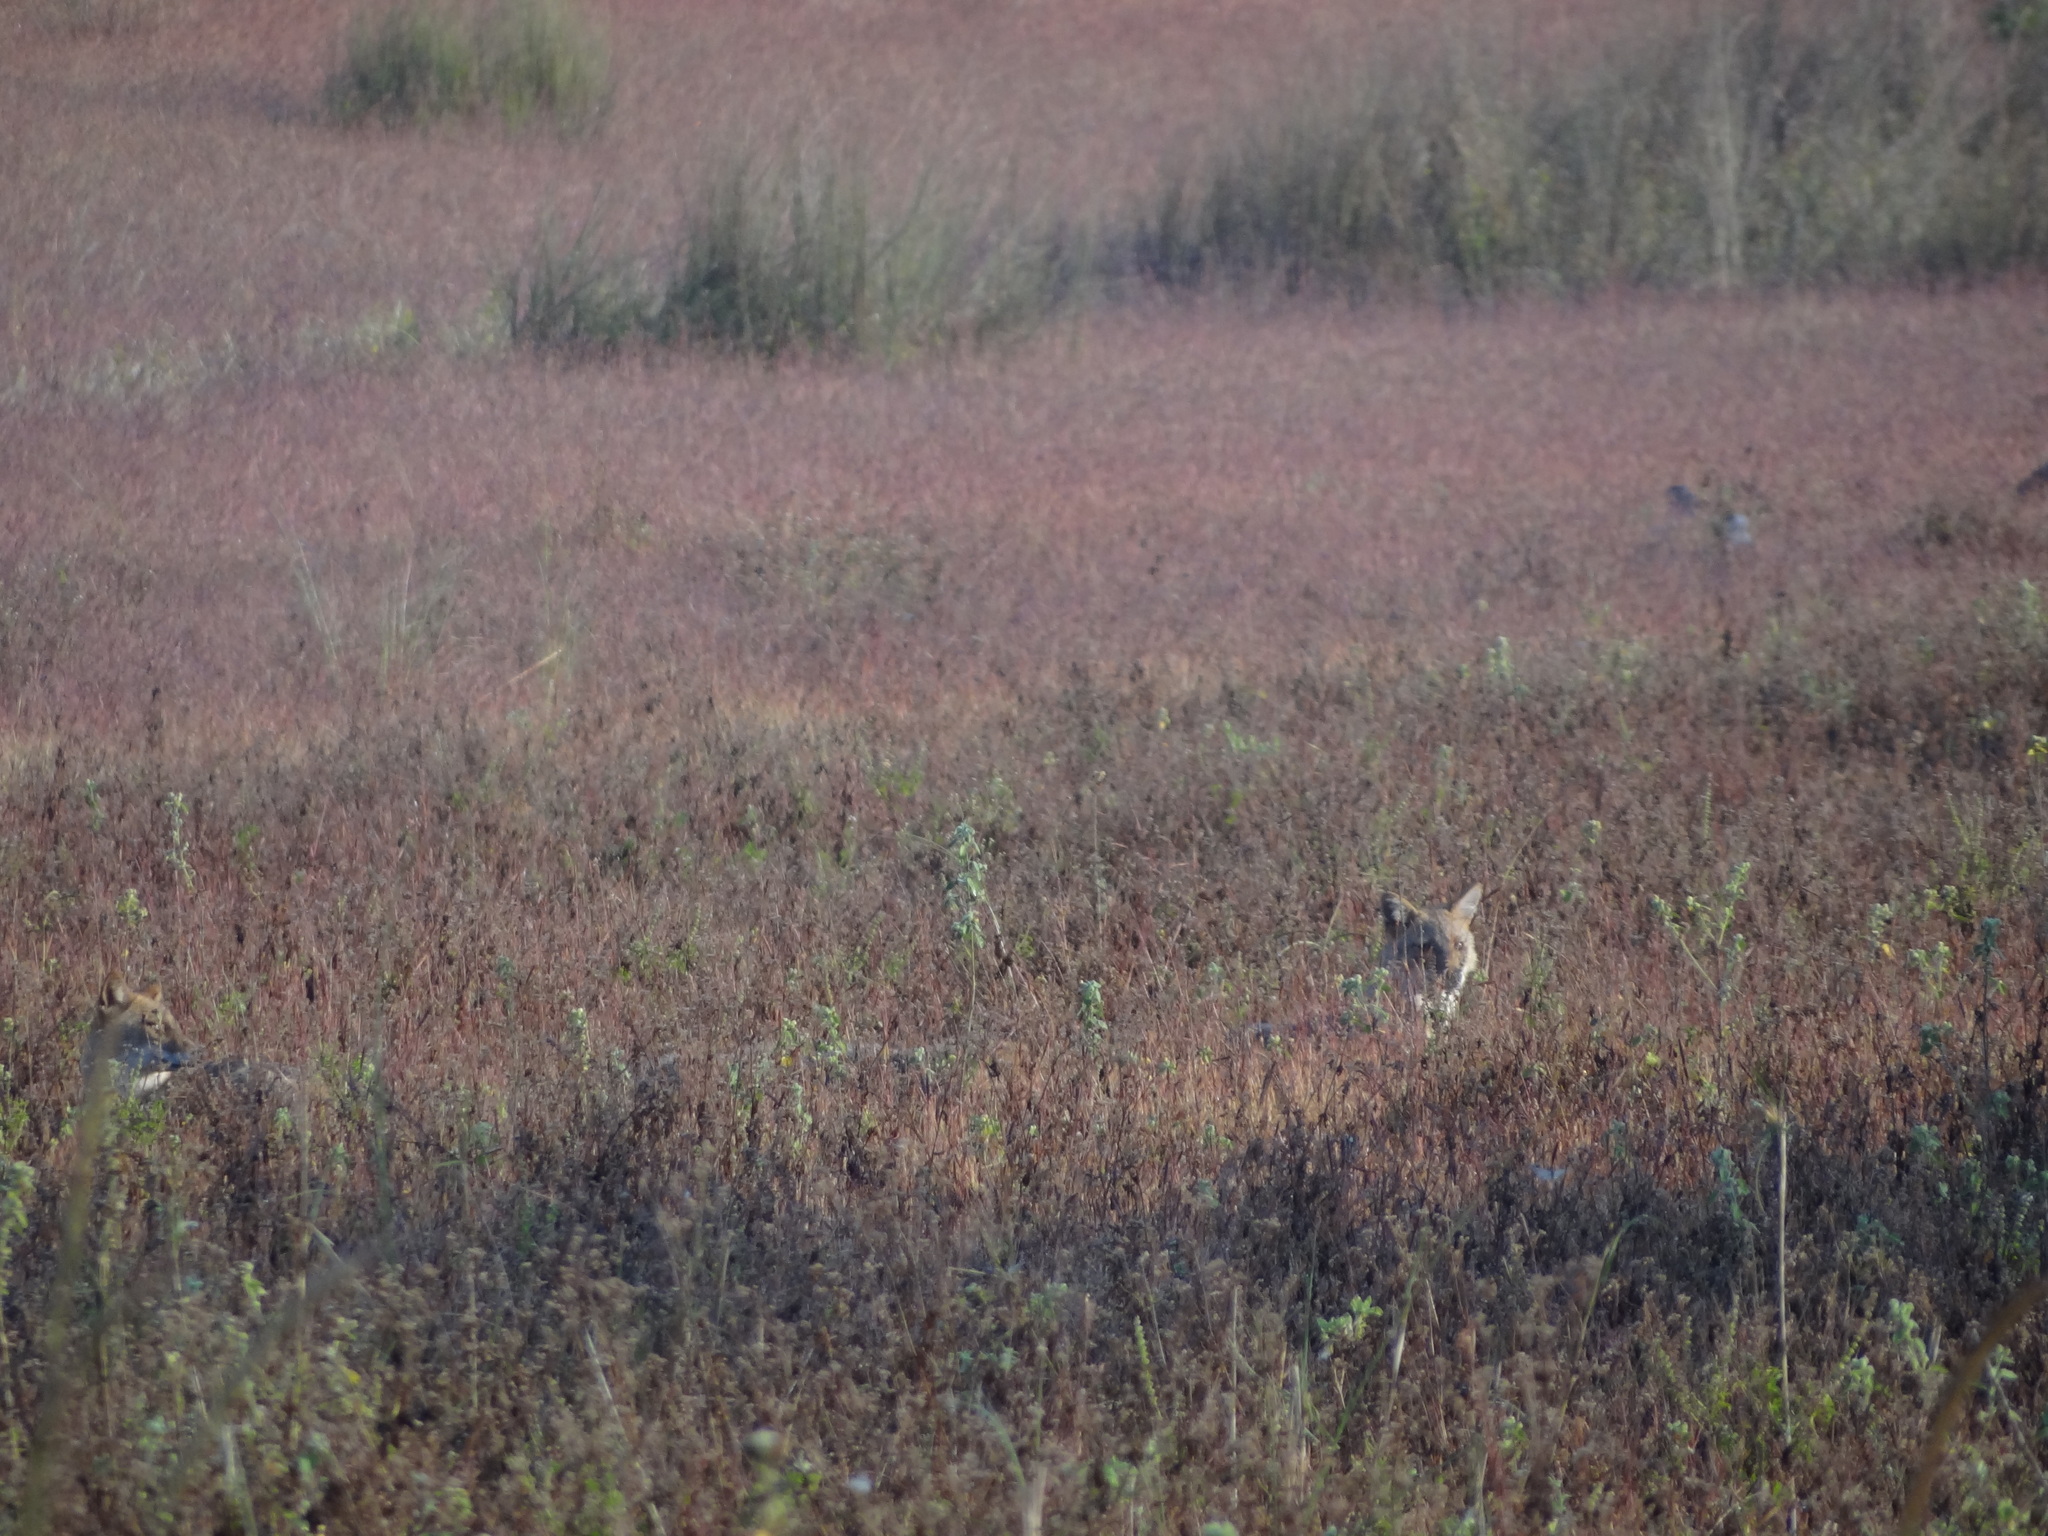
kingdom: Animalia
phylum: Chordata
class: Mammalia
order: Carnivora
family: Canidae
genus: Canis
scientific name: Canis aureus
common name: Golden jackal
